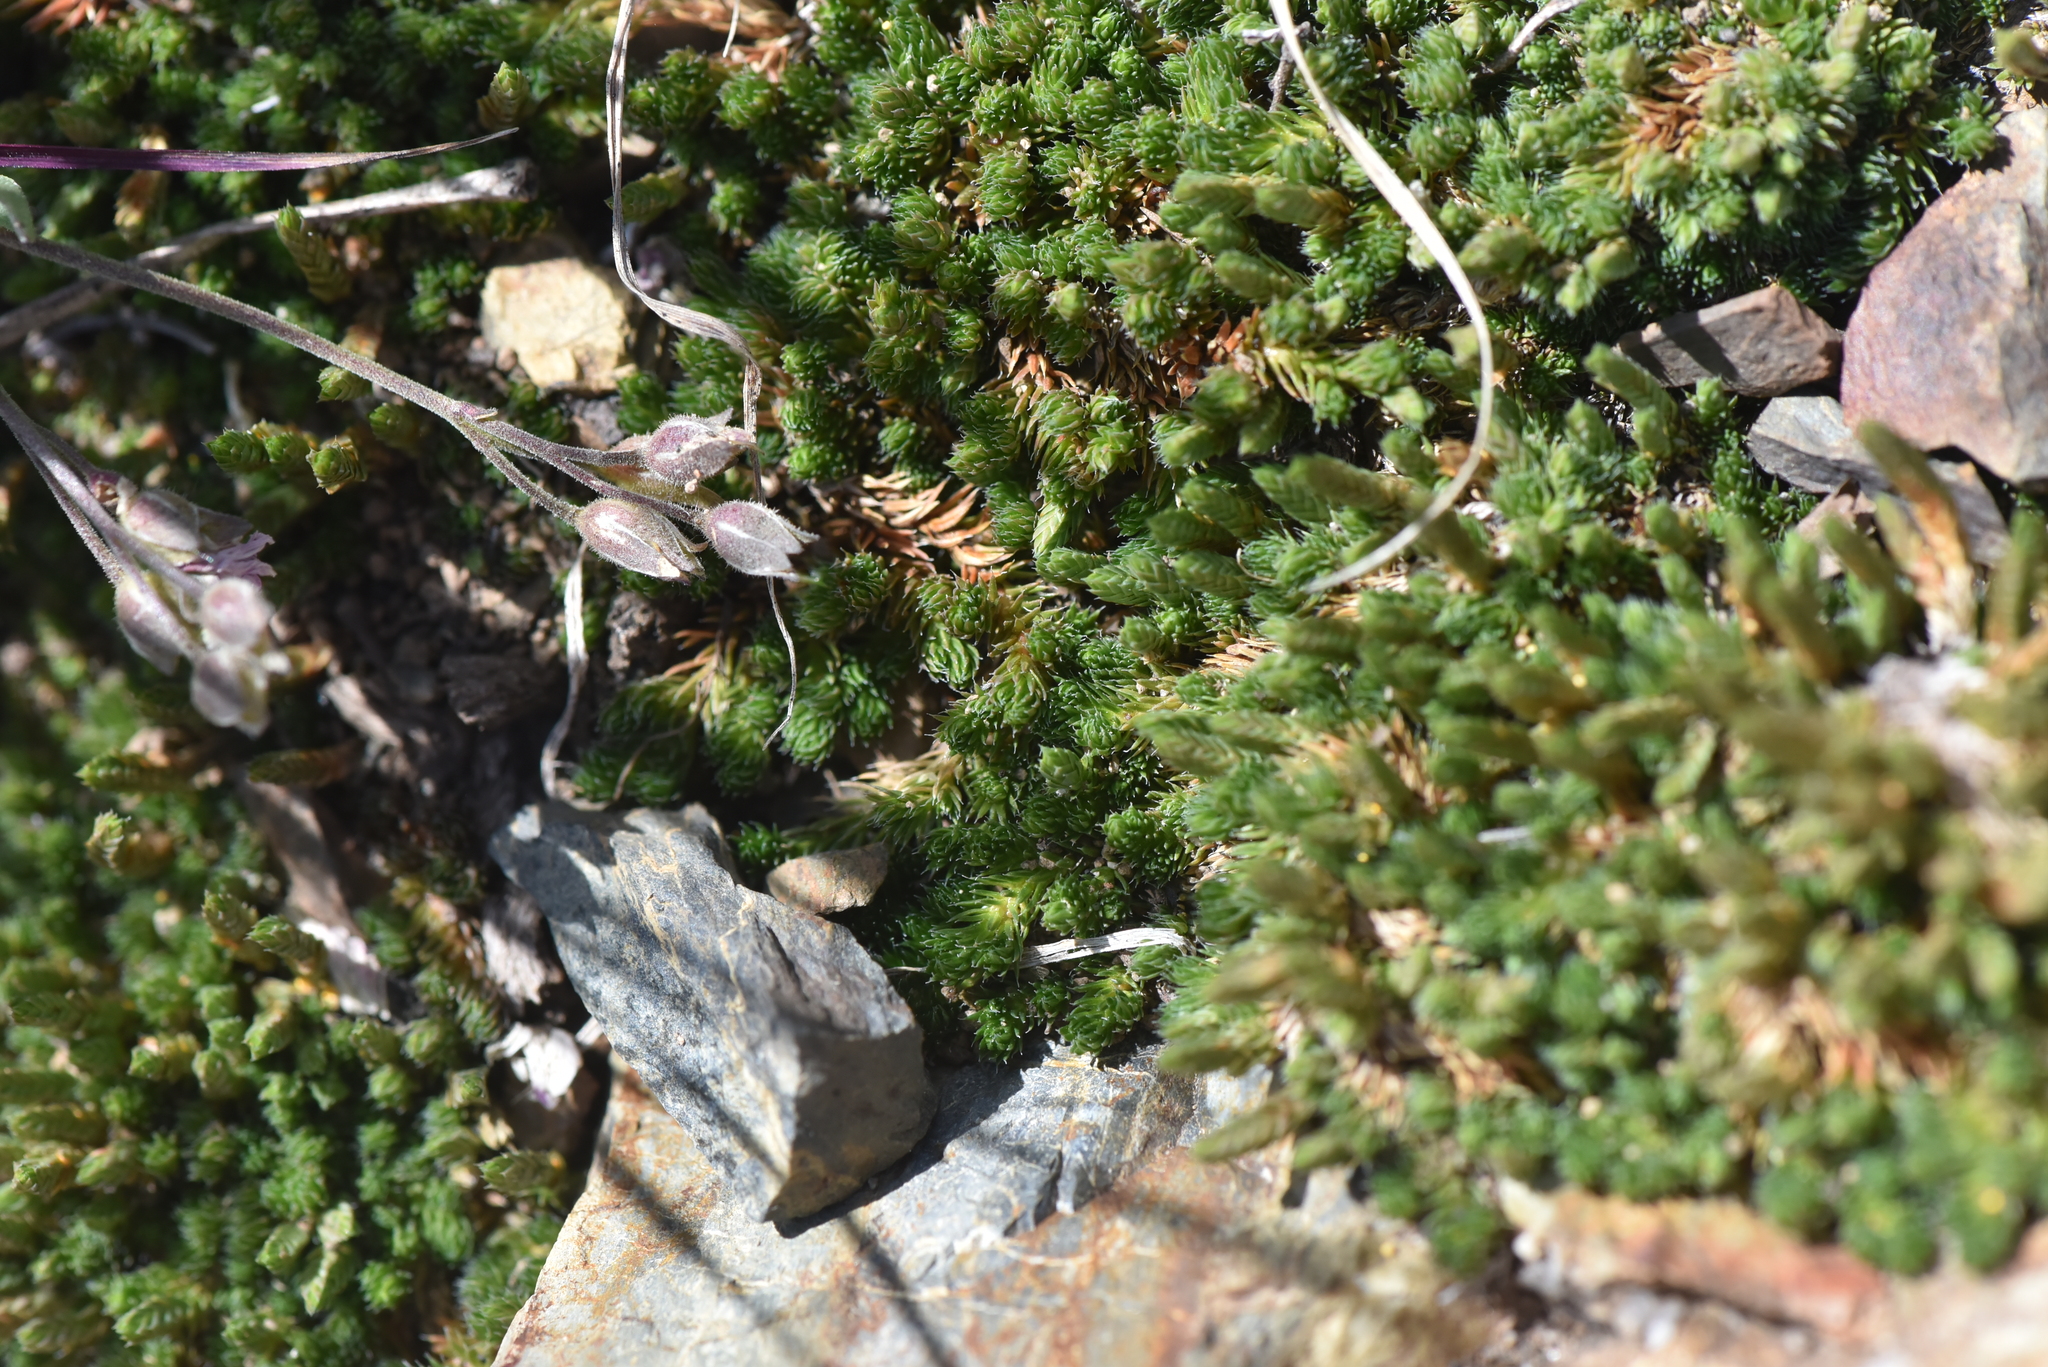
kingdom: Plantae
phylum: Tracheophyta
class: Lycopodiopsida
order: Selaginellales
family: Selaginellaceae
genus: Selaginella
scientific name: Selaginella densa
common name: Mountain spike-moss
